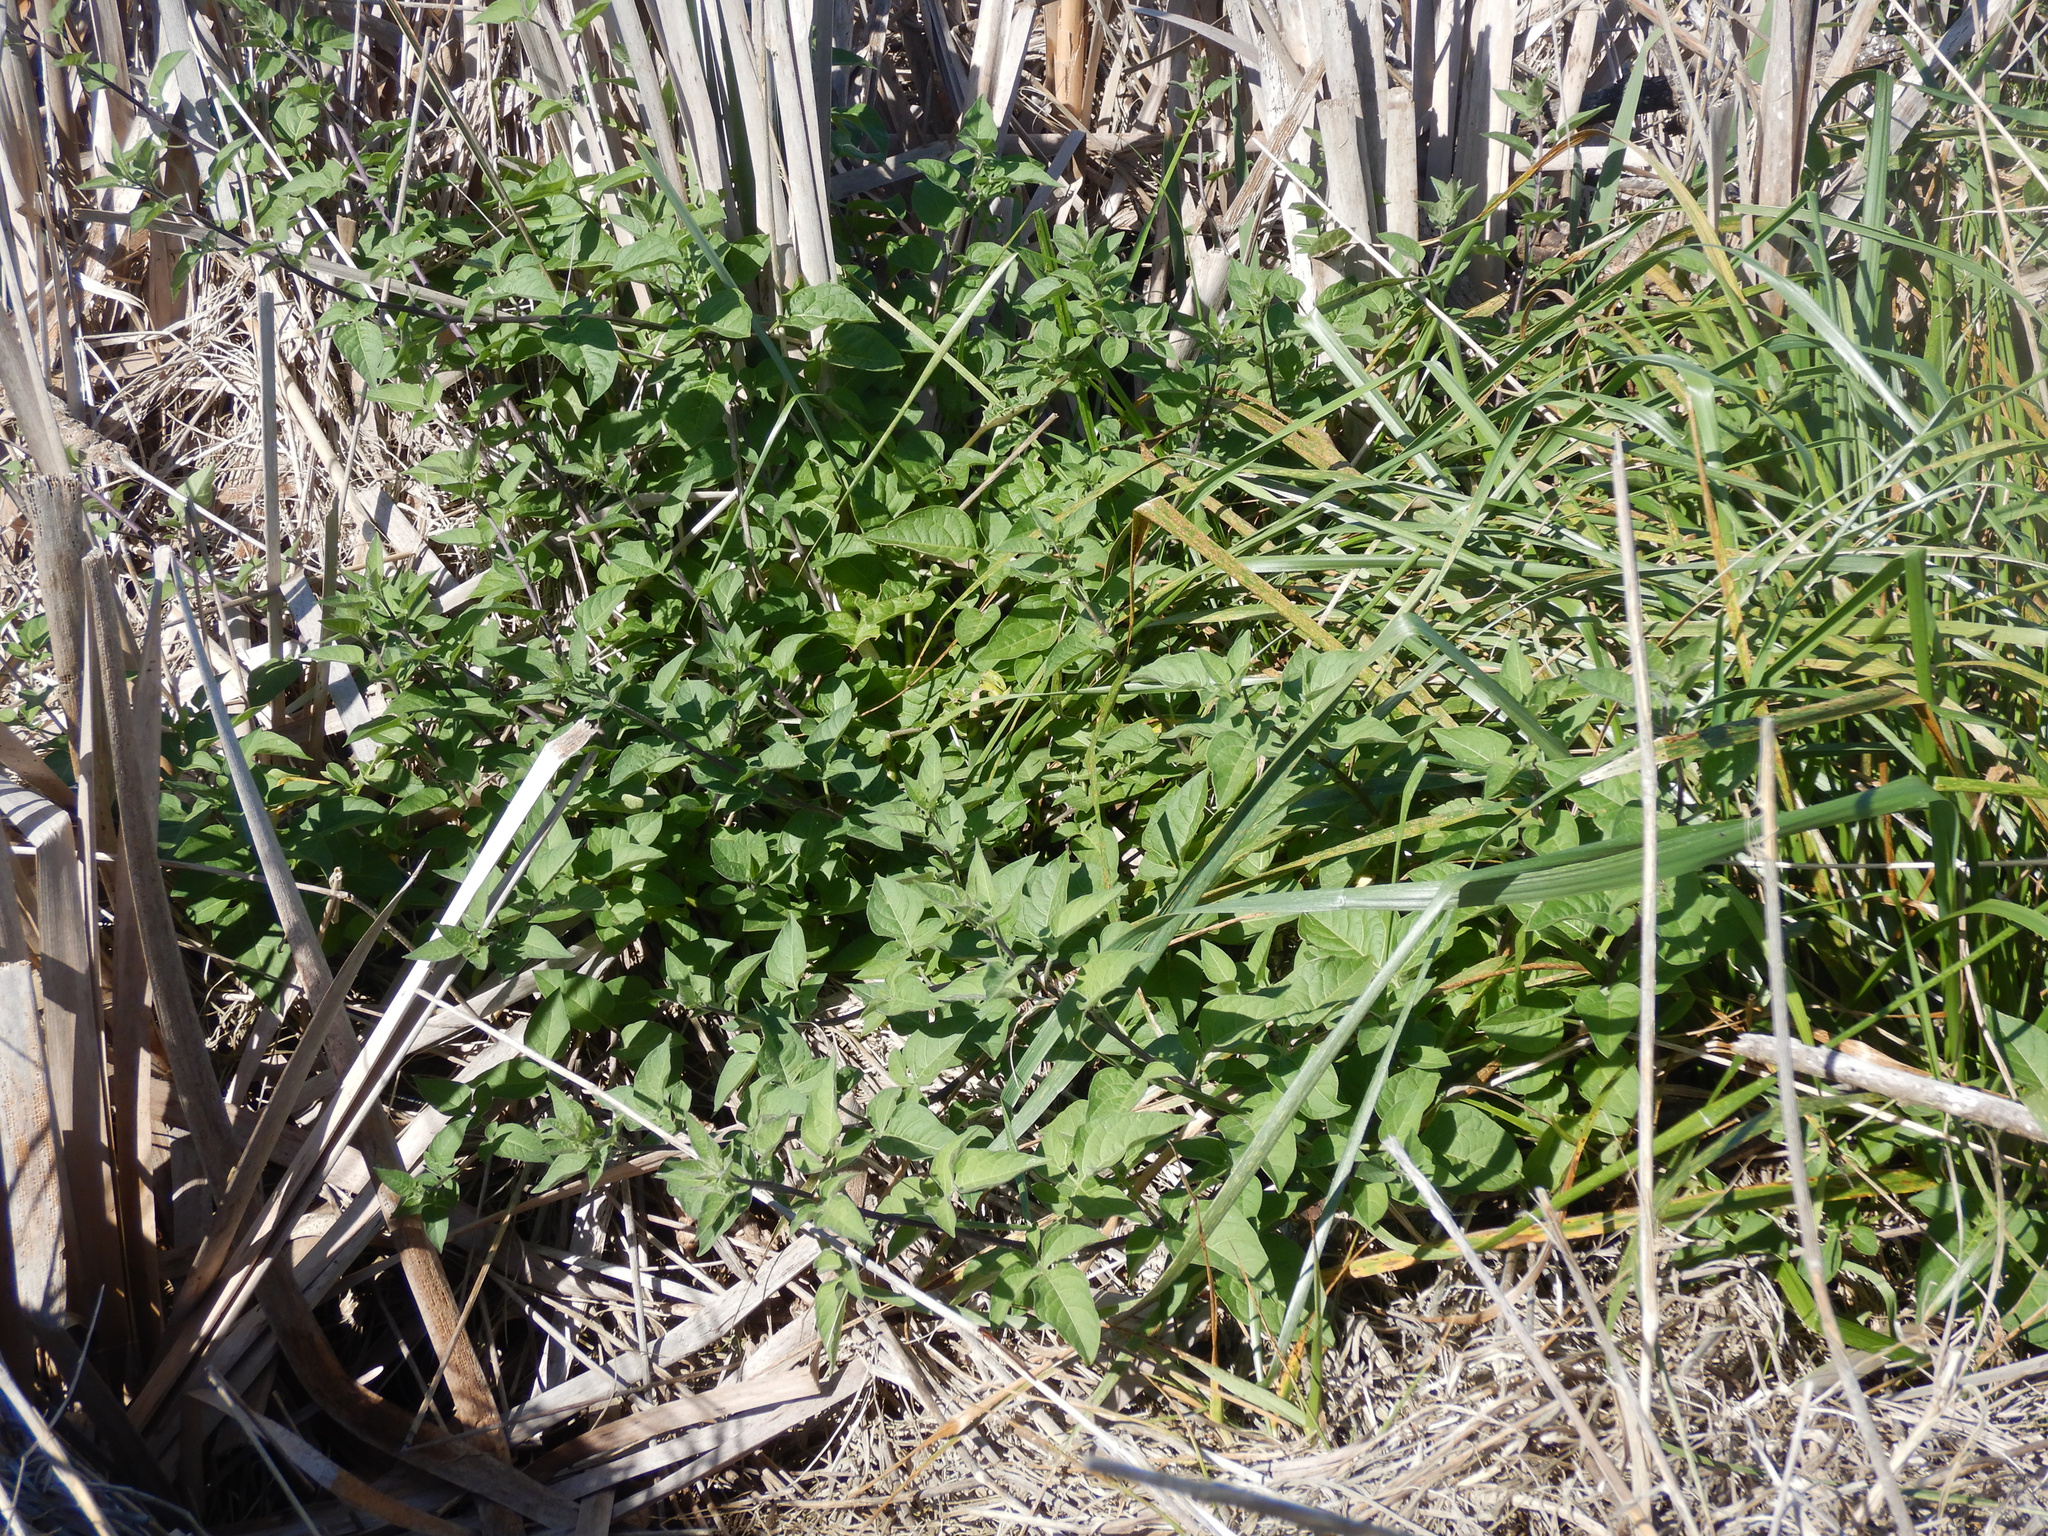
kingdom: Plantae
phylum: Tracheophyta
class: Magnoliopsida
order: Solanales
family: Solanaceae
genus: Solanum
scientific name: Solanum dulcamara
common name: Climbing nightshade
